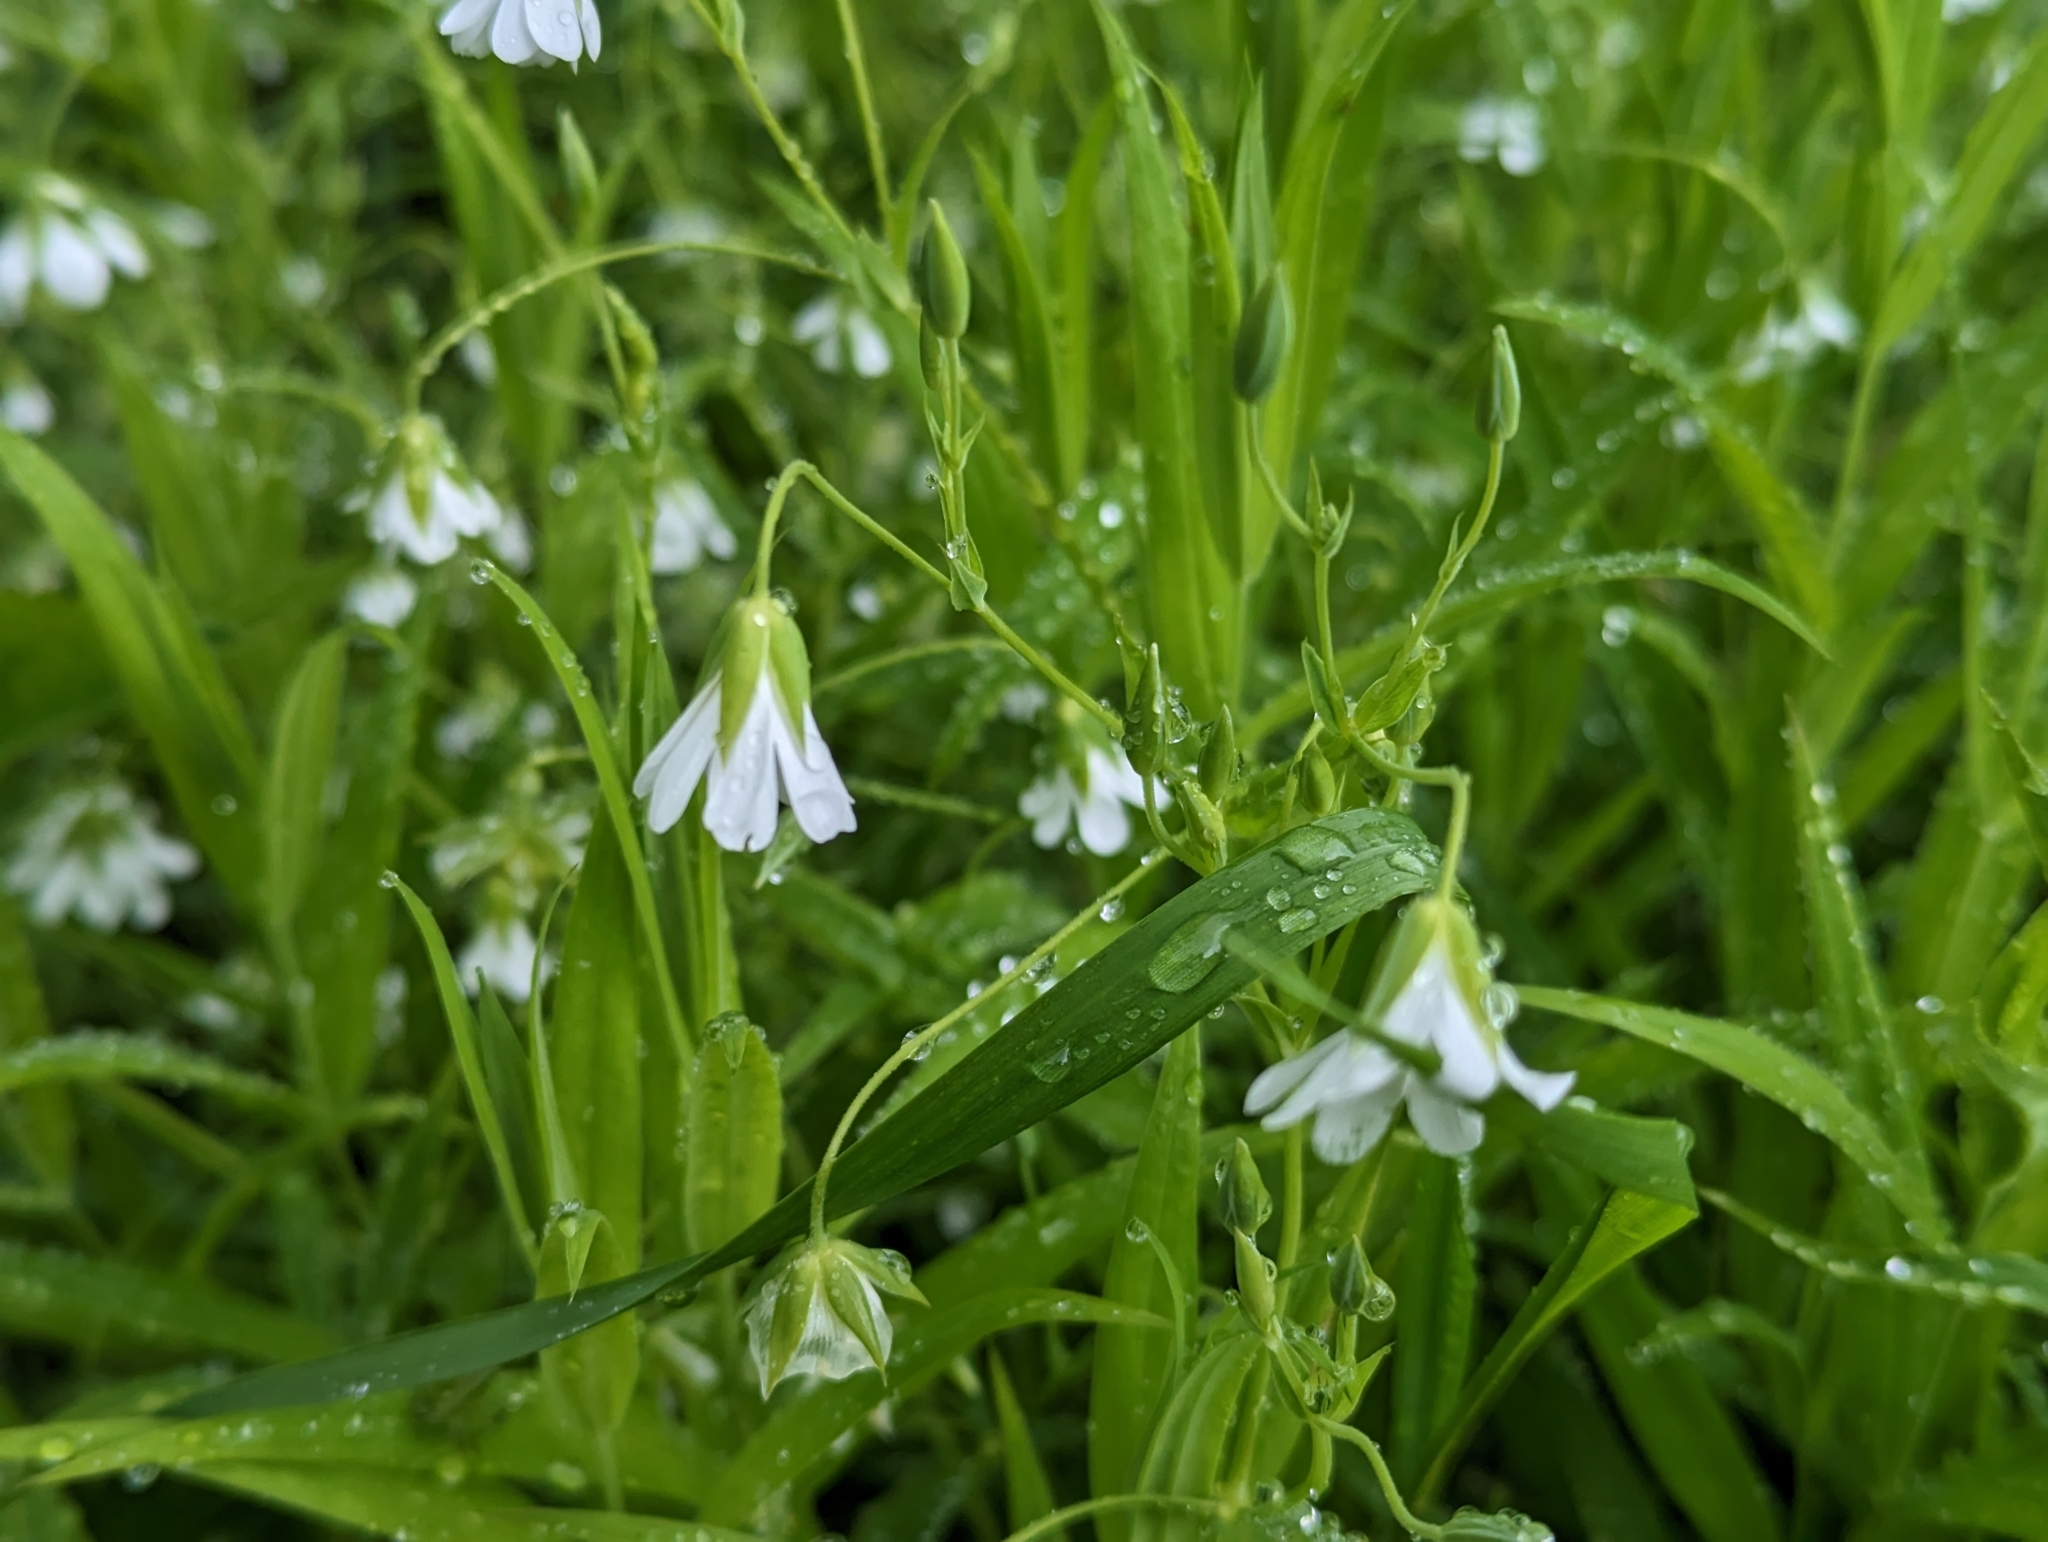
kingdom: Plantae
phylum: Tracheophyta
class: Magnoliopsida
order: Caryophyllales
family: Caryophyllaceae
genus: Rabelera
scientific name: Rabelera holostea
